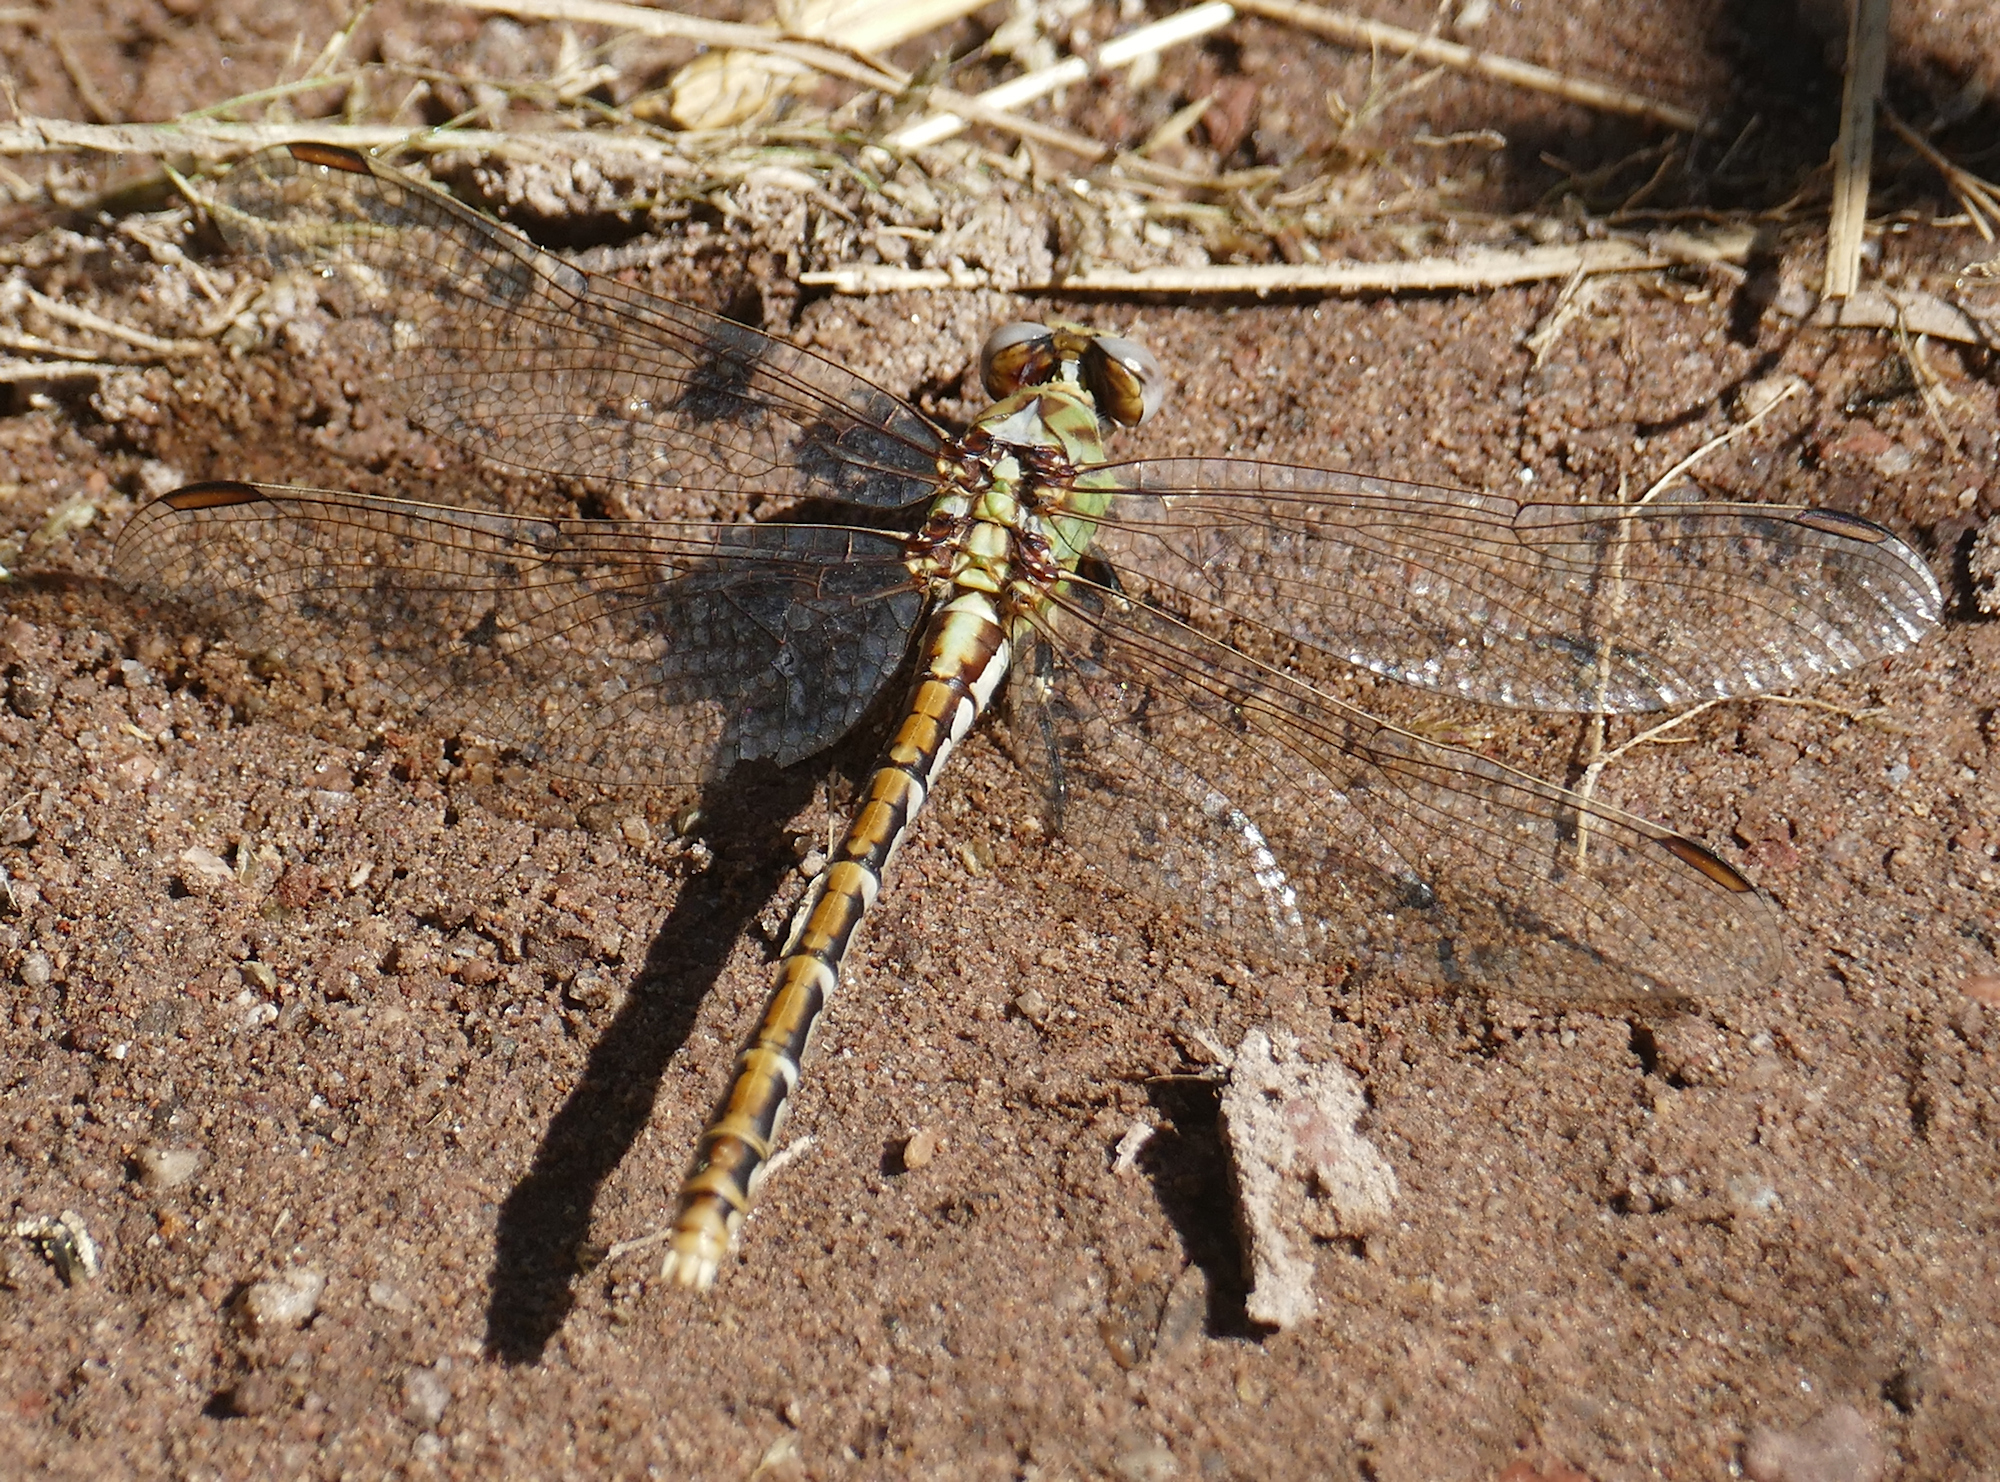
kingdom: Animalia
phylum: Arthropoda
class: Insecta
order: Odonata
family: Gomphidae
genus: Ophiogomphus
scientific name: Ophiogomphus arizonicus
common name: Arizona snaketail
